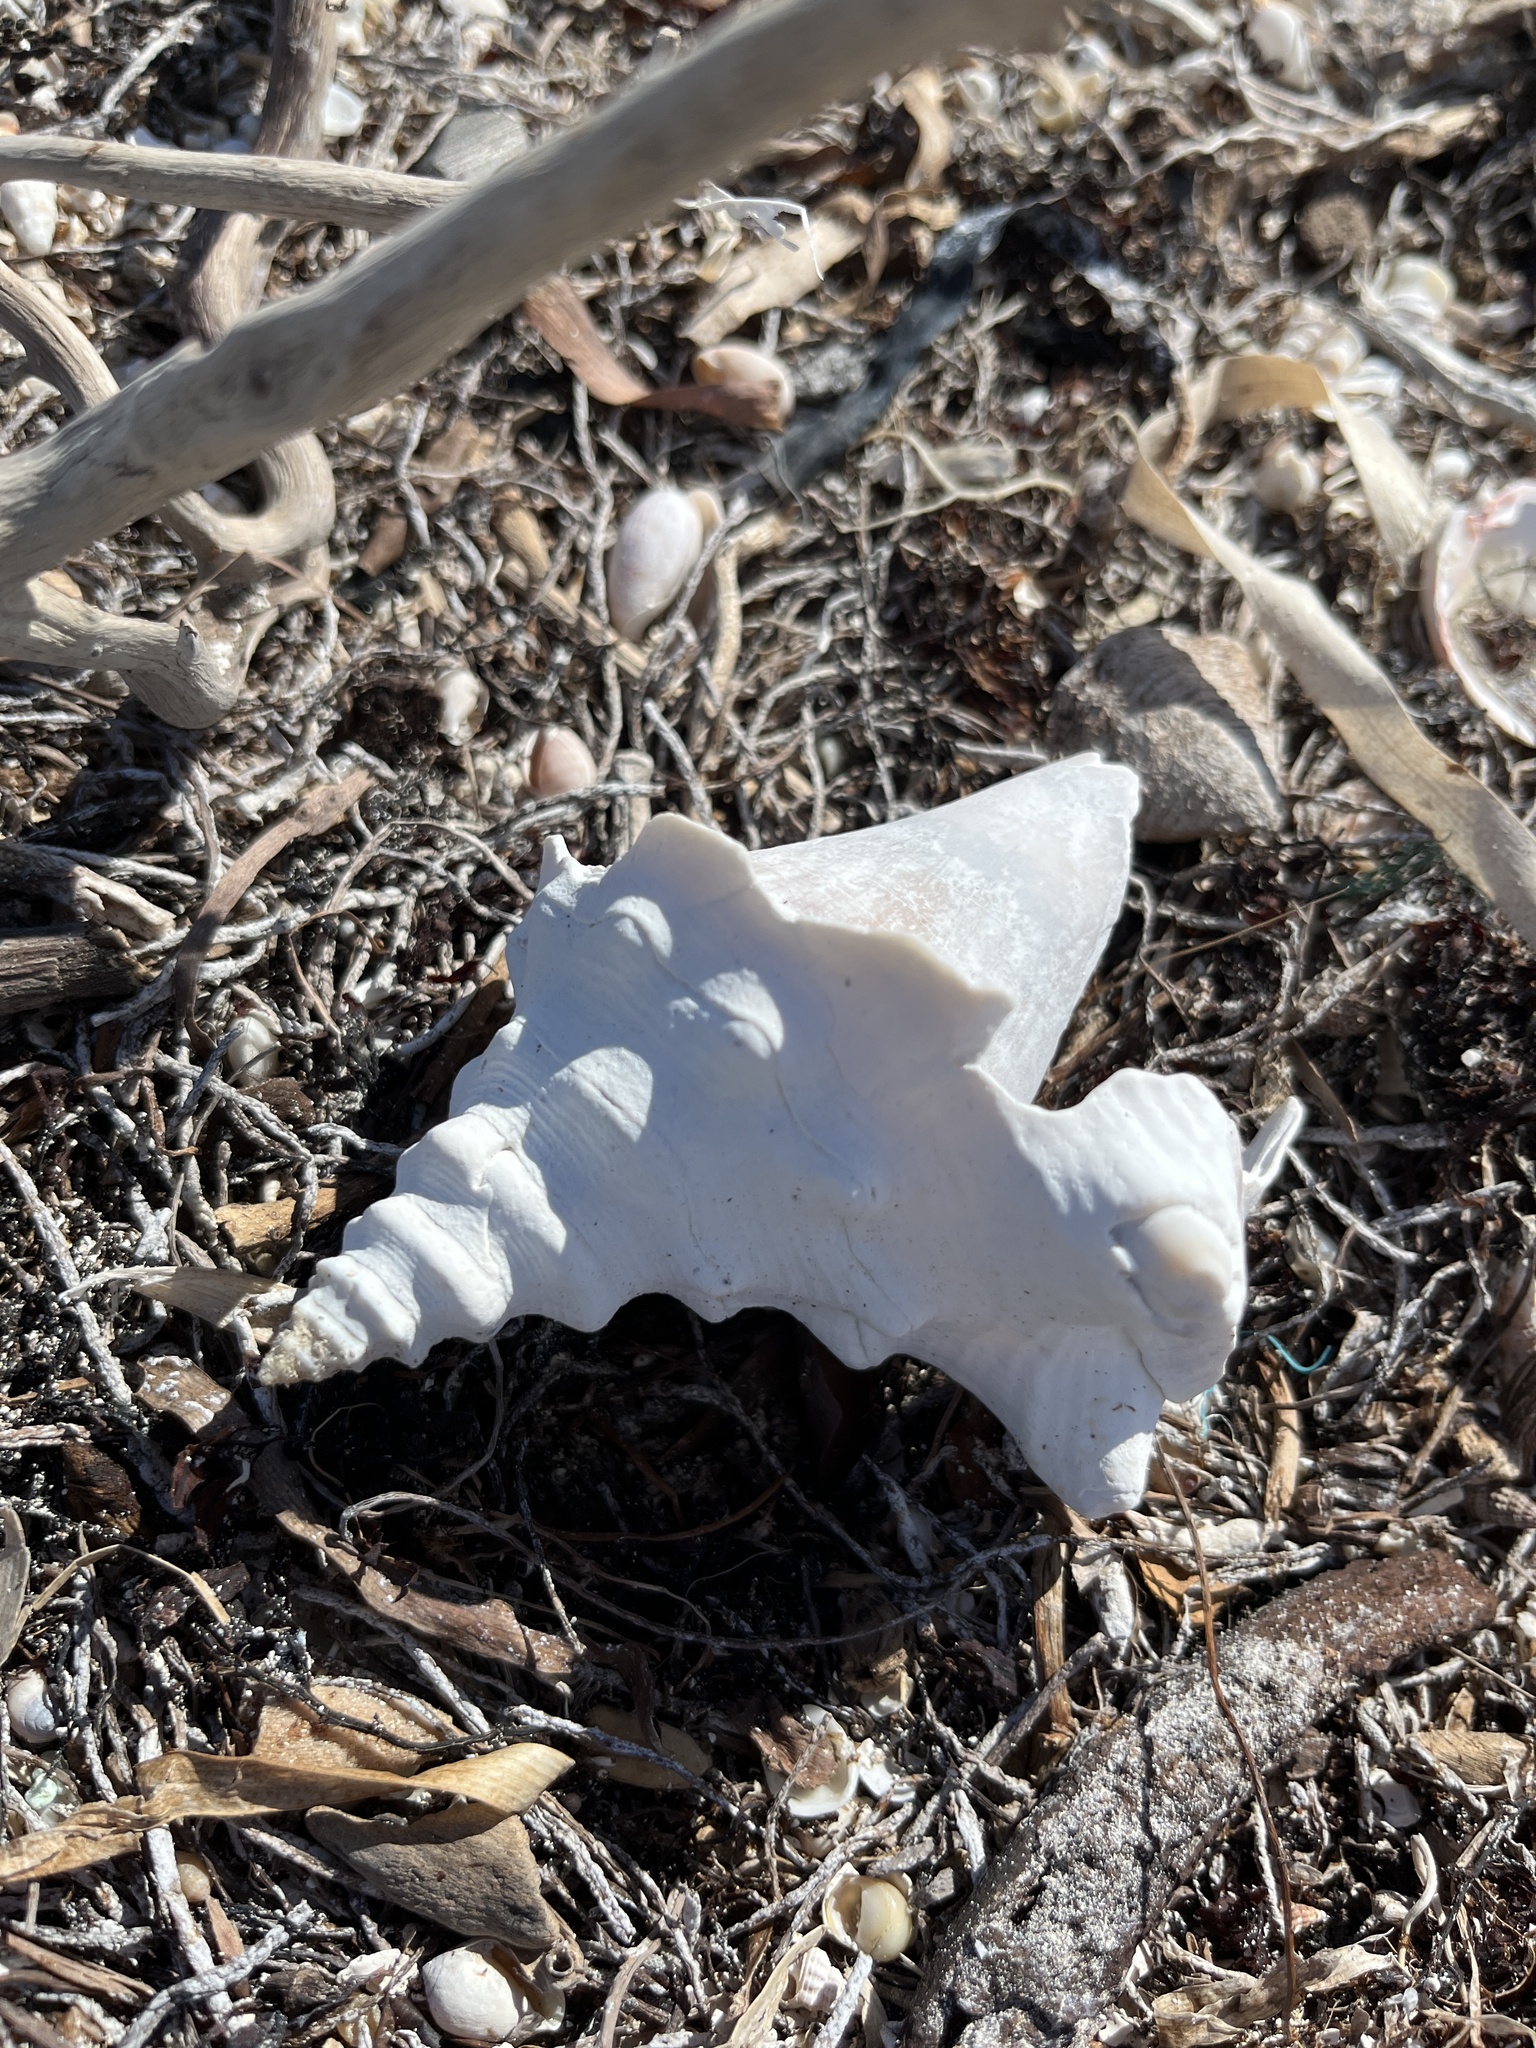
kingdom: Animalia
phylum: Mollusca
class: Gastropoda
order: Littorinimorpha
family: Strombidae
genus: Aliger
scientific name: Aliger gigas
